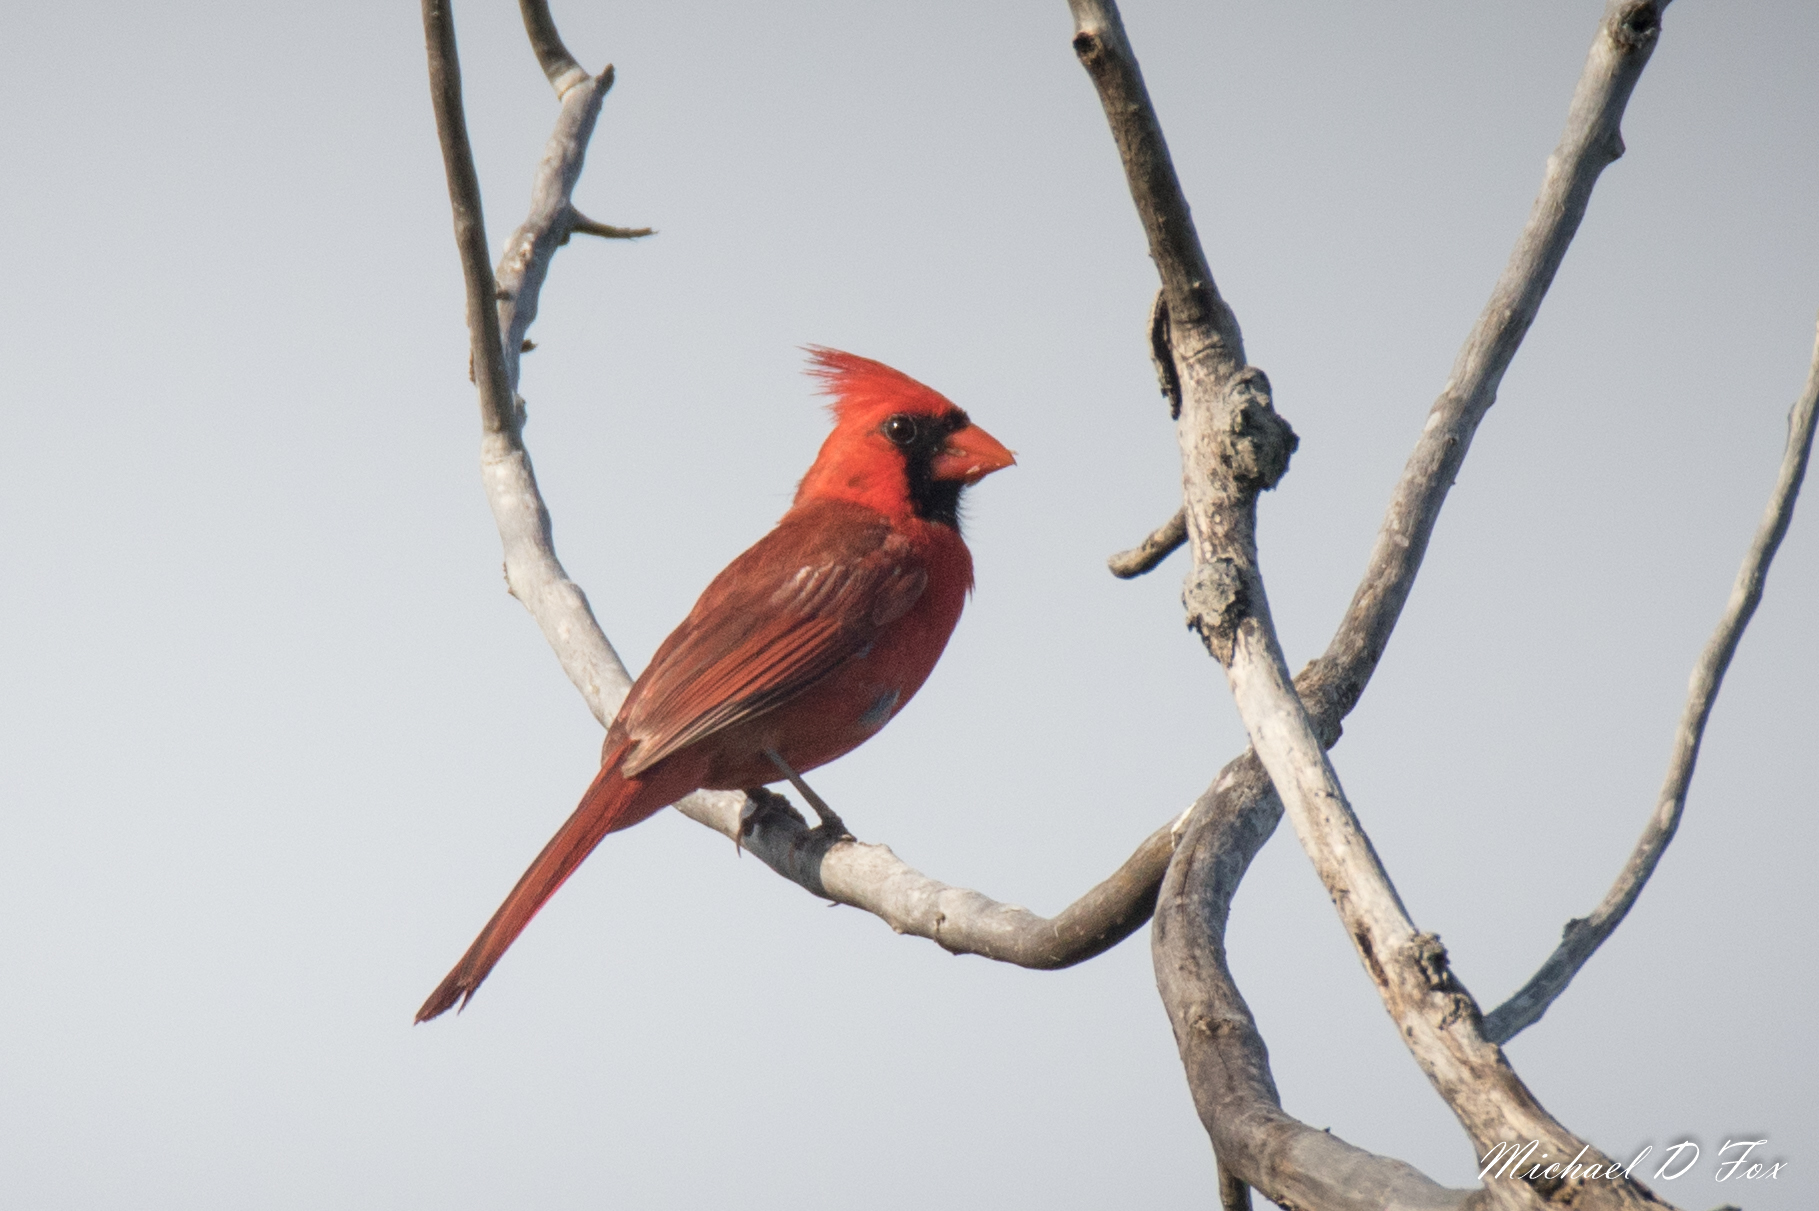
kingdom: Animalia
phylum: Chordata
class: Aves
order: Passeriformes
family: Cardinalidae
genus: Cardinalis
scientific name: Cardinalis cardinalis
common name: Northern cardinal
